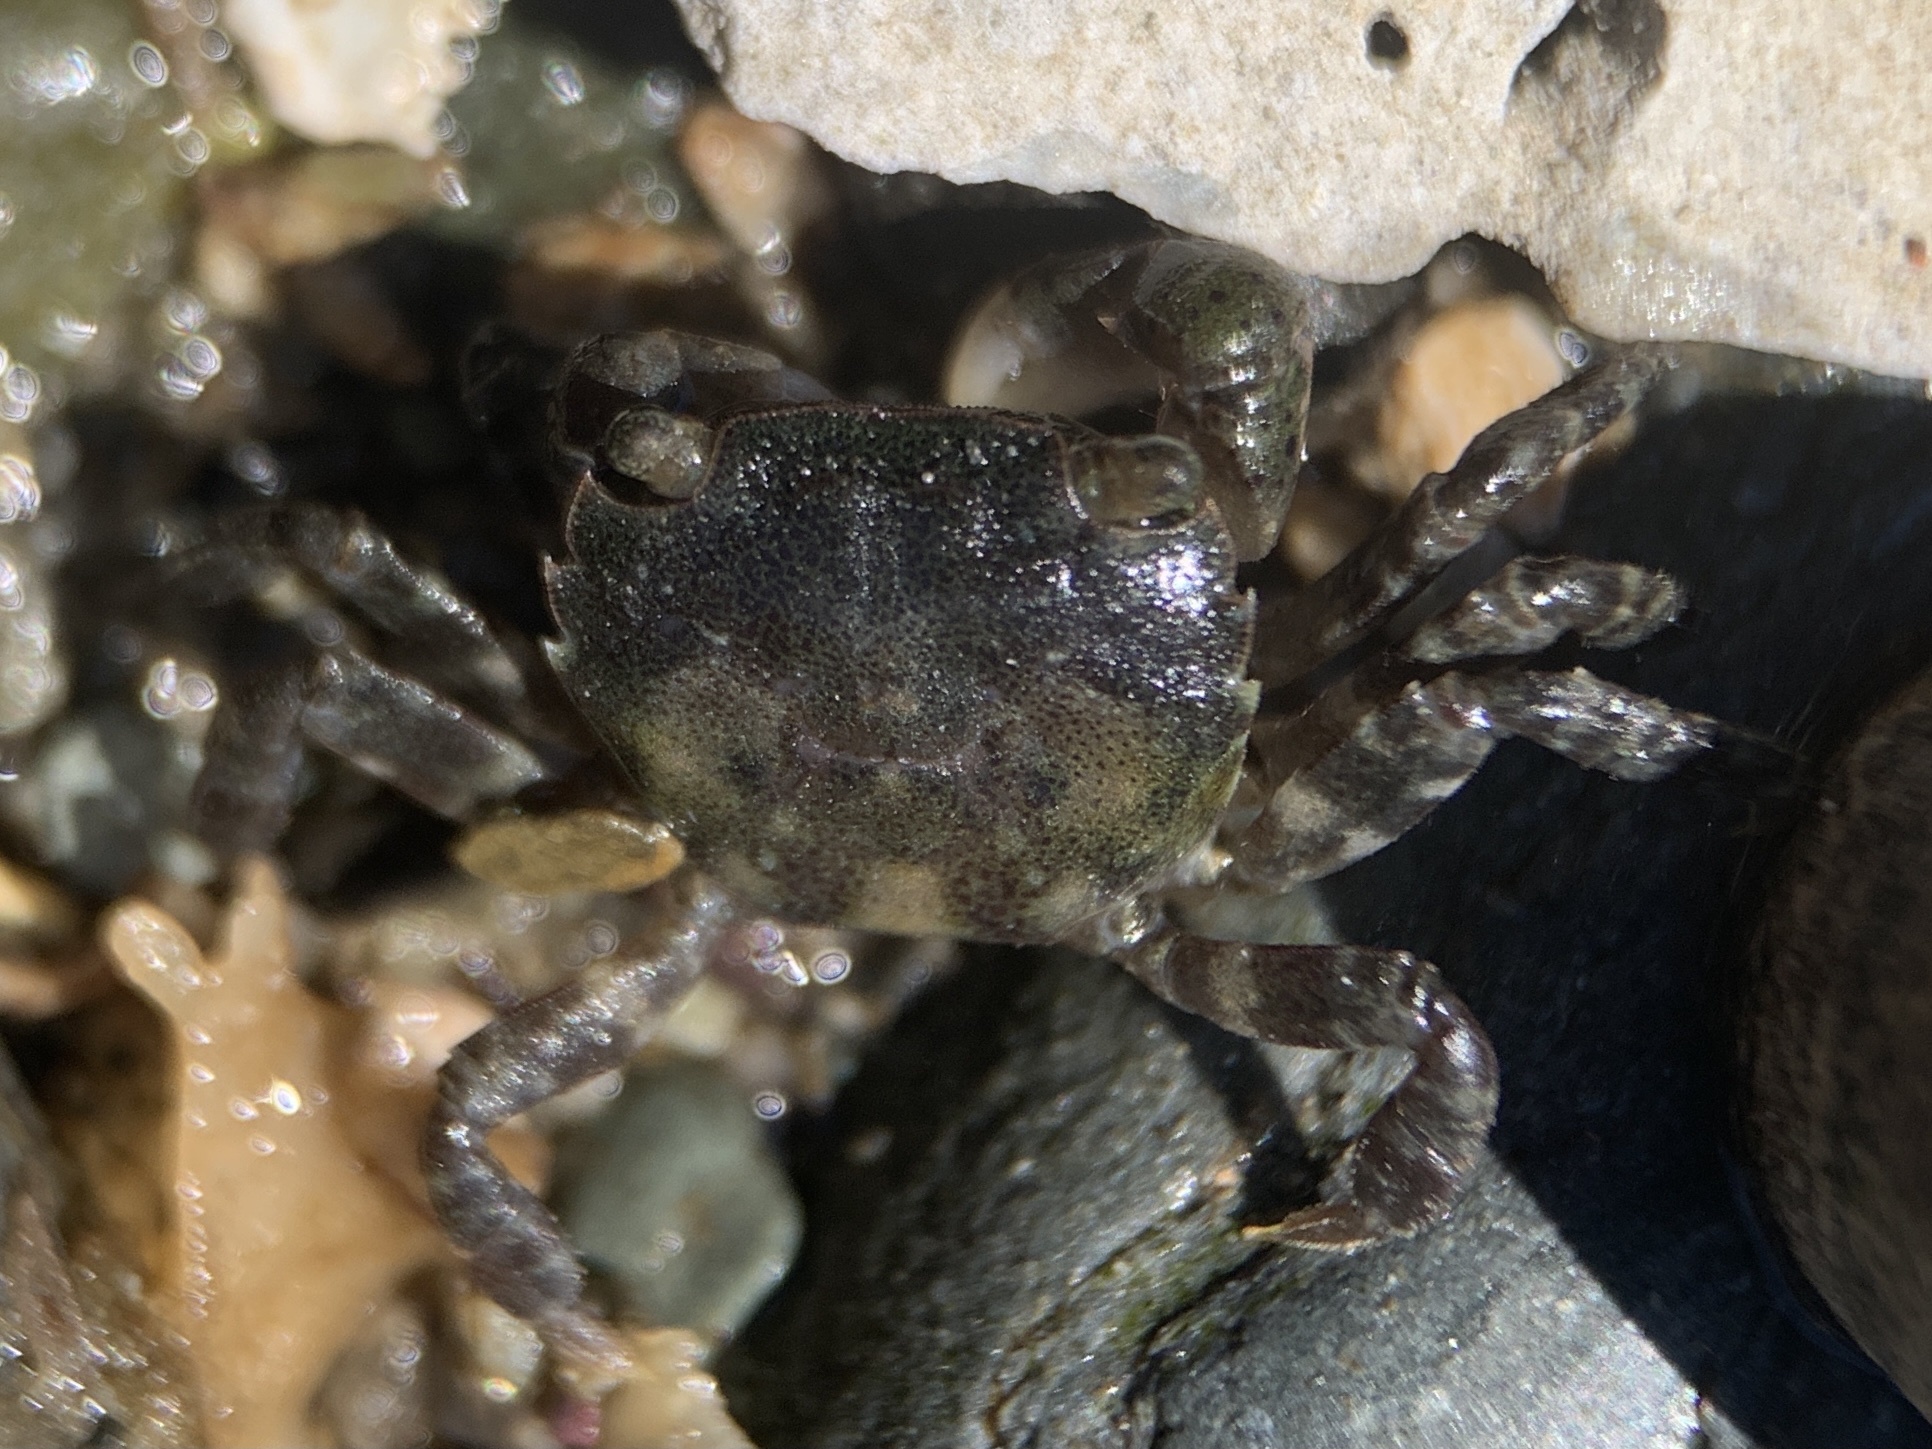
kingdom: Animalia
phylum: Arthropoda
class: Malacostraca
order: Decapoda
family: Varunidae
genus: Hemigrapsus
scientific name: Hemigrapsus sanguineus
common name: Asian shore crab
